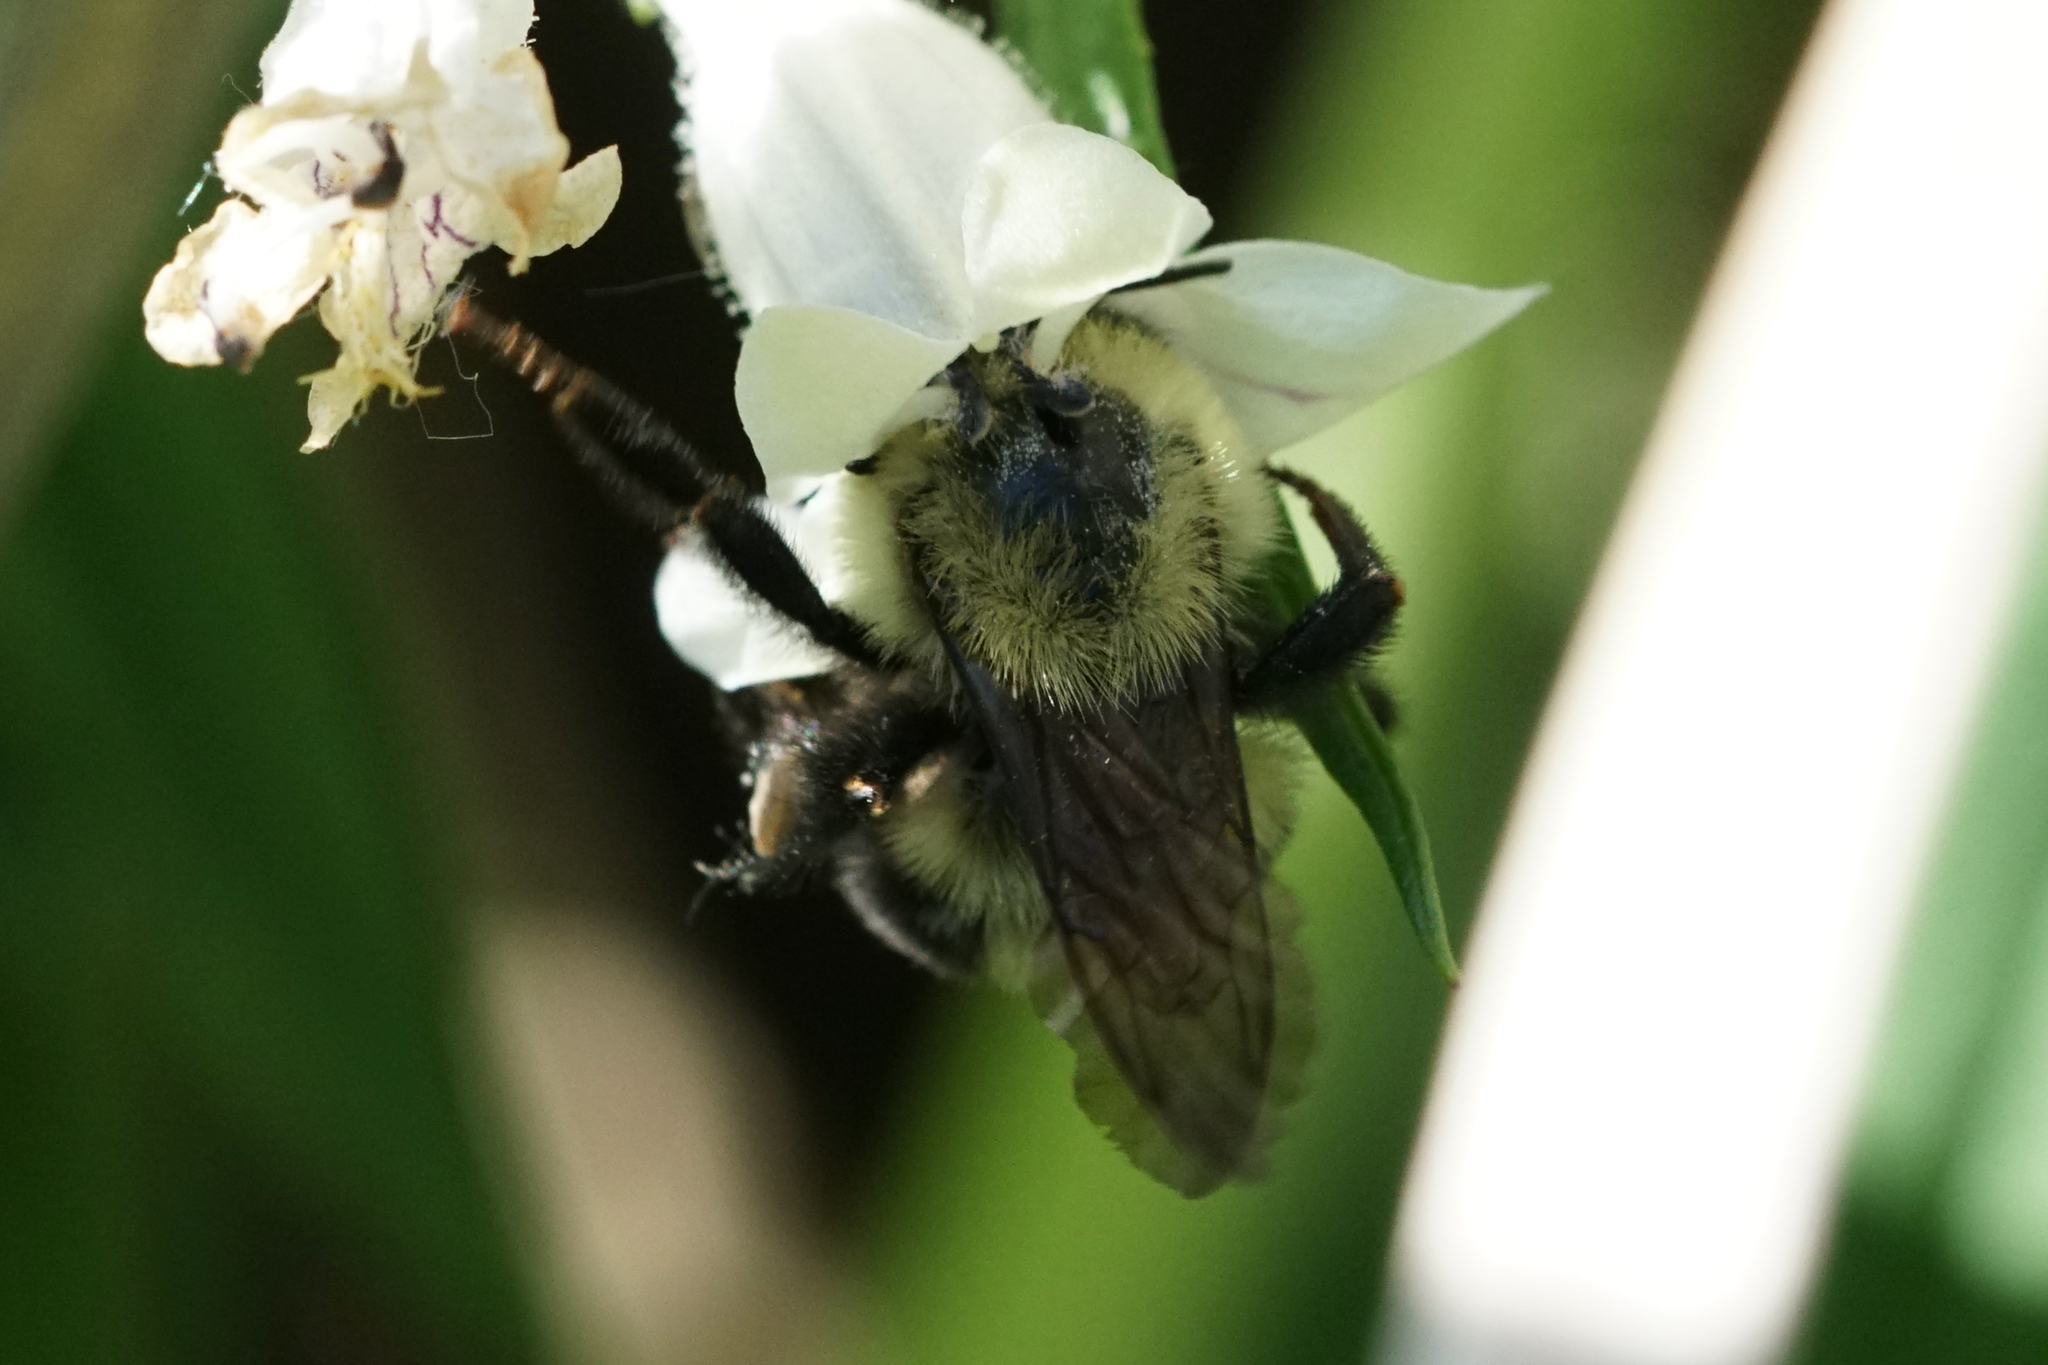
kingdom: Animalia
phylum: Arthropoda
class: Insecta
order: Hymenoptera
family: Apidae
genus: Bombus
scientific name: Bombus bimaculatus
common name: Two-spotted bumble bee
